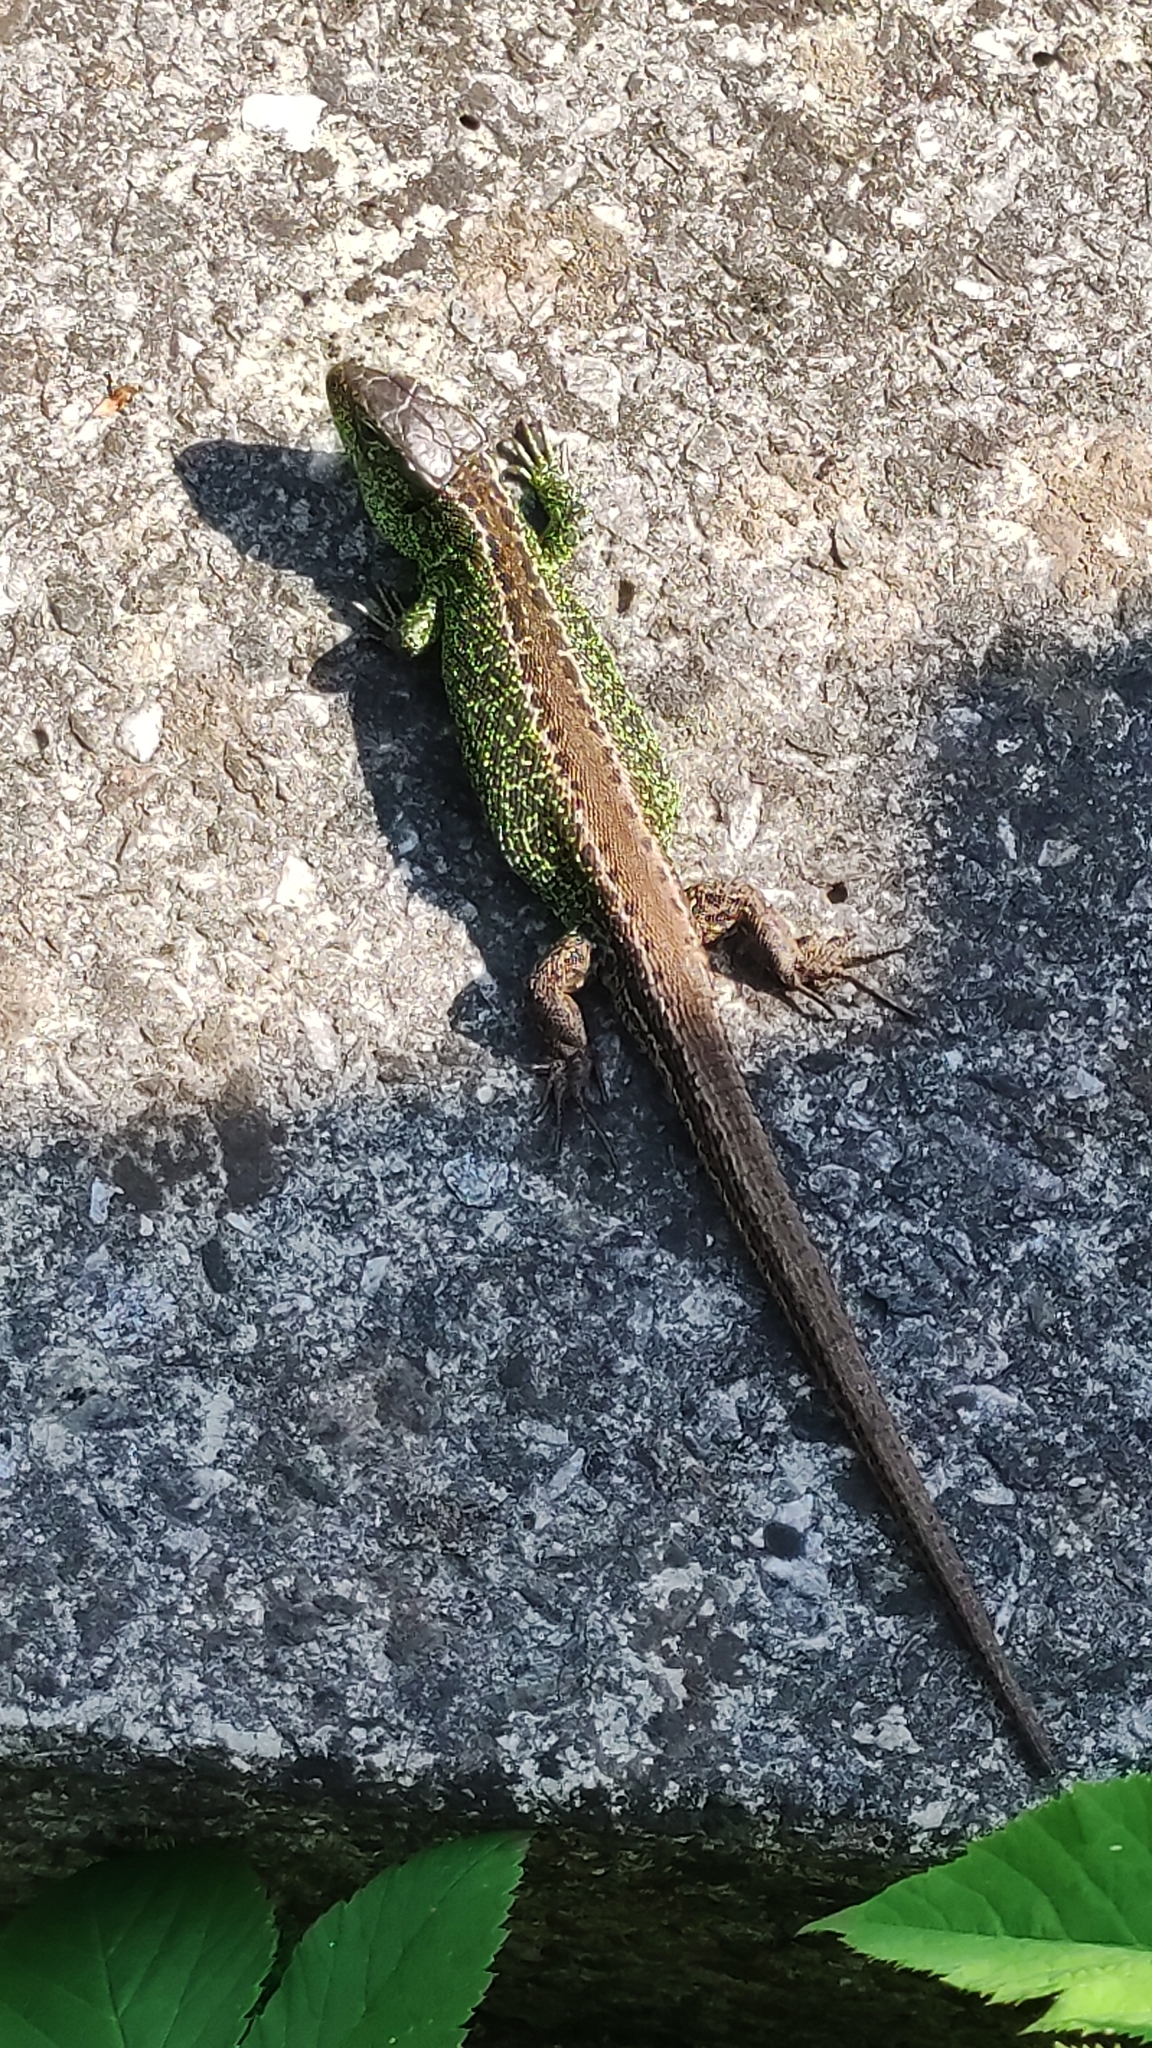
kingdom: Animalia
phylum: Chordata
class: Squamata
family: Lacertidae
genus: Lacerta
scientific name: Lacerta agilis
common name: Sand lizard
